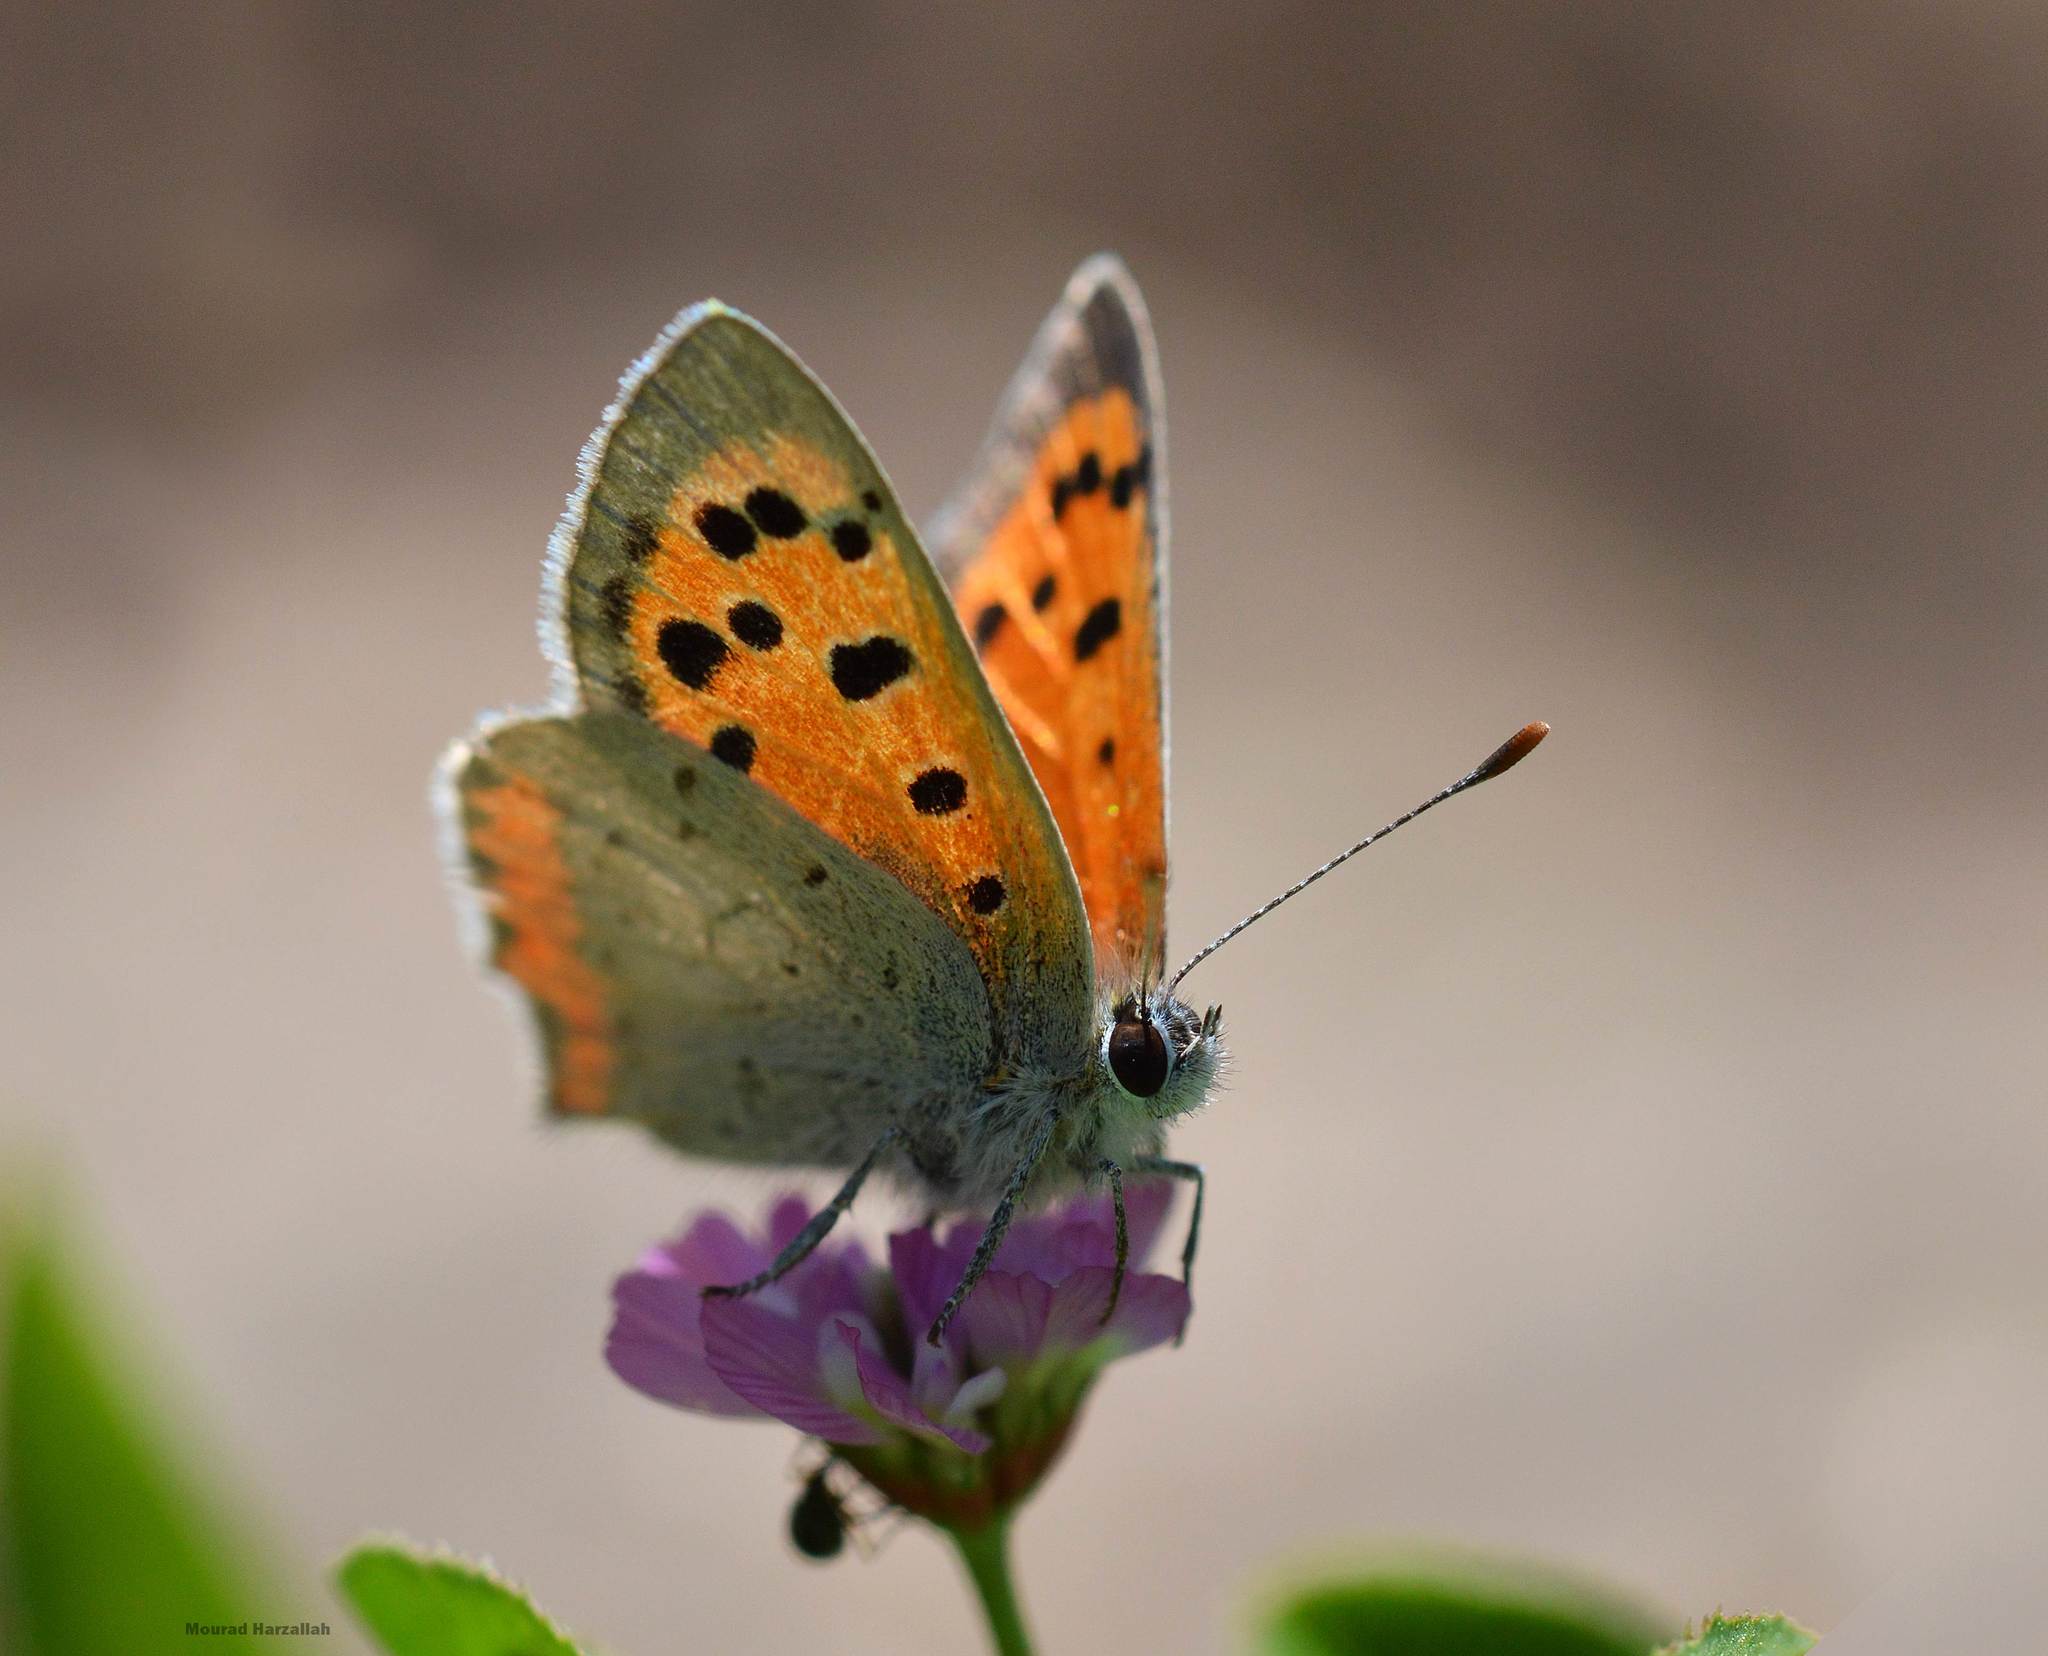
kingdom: Animalia
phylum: Arthropoda
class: Insecta
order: Lepidoptera
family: Lycaenidae
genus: Lycaena
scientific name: Lycaena phlaeas
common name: Small copper
